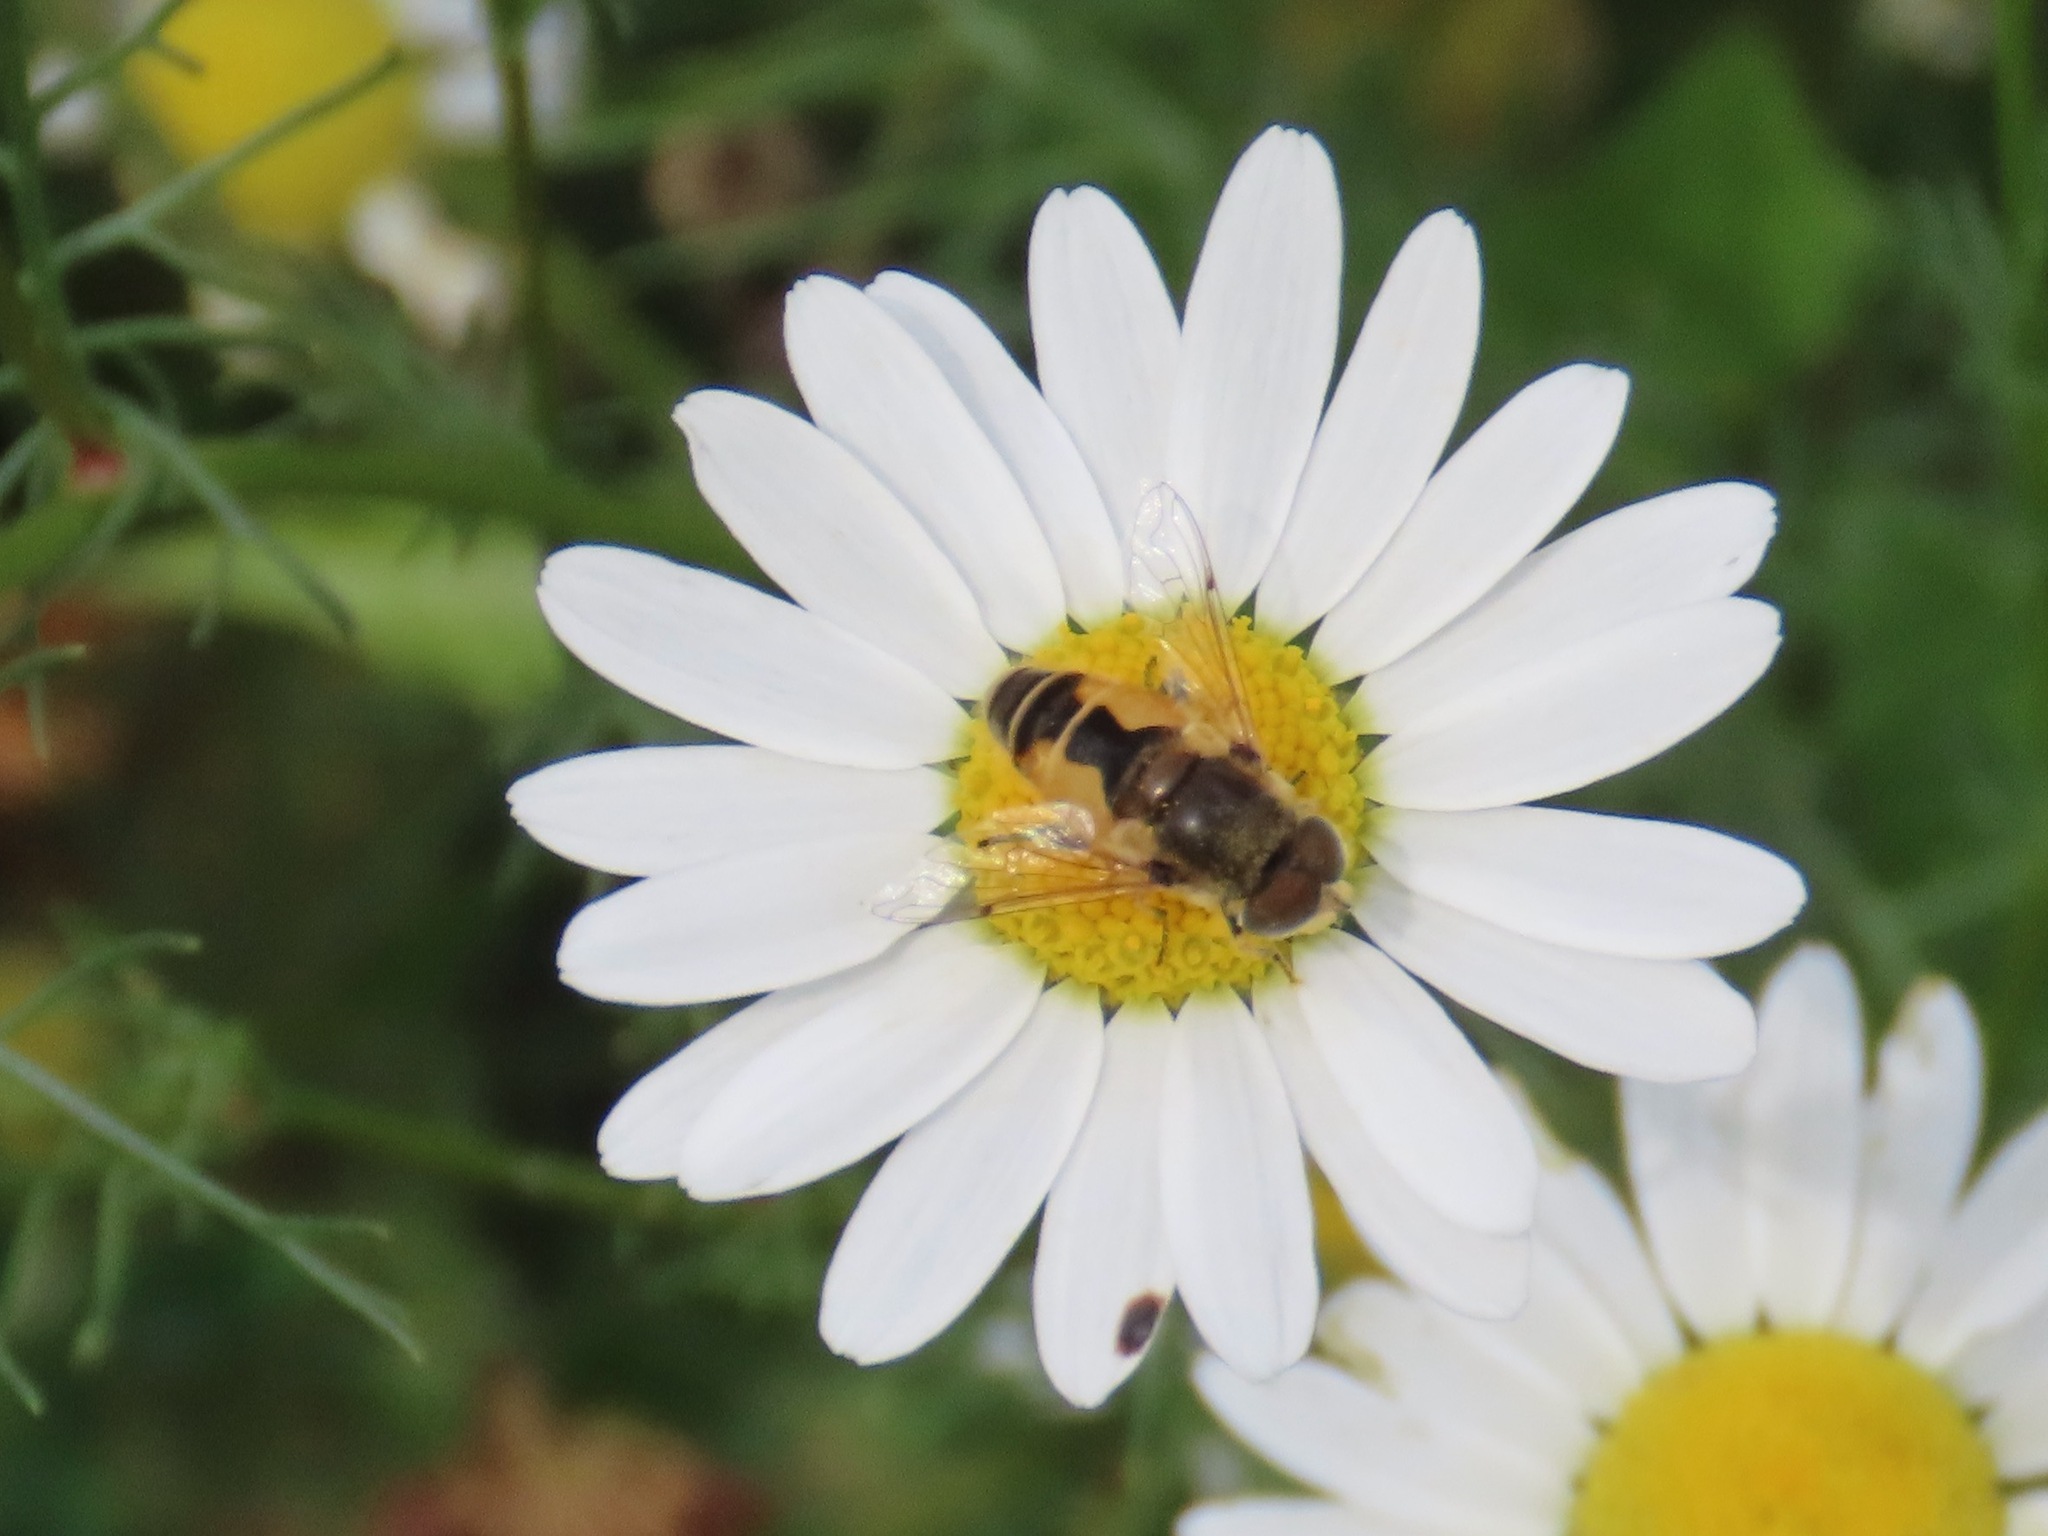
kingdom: Animalia
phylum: Arthropoda
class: Insecta
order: Diptera
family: Syrphidae
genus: Eristalis
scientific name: Eristalis arbustorum
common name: Hover fly
